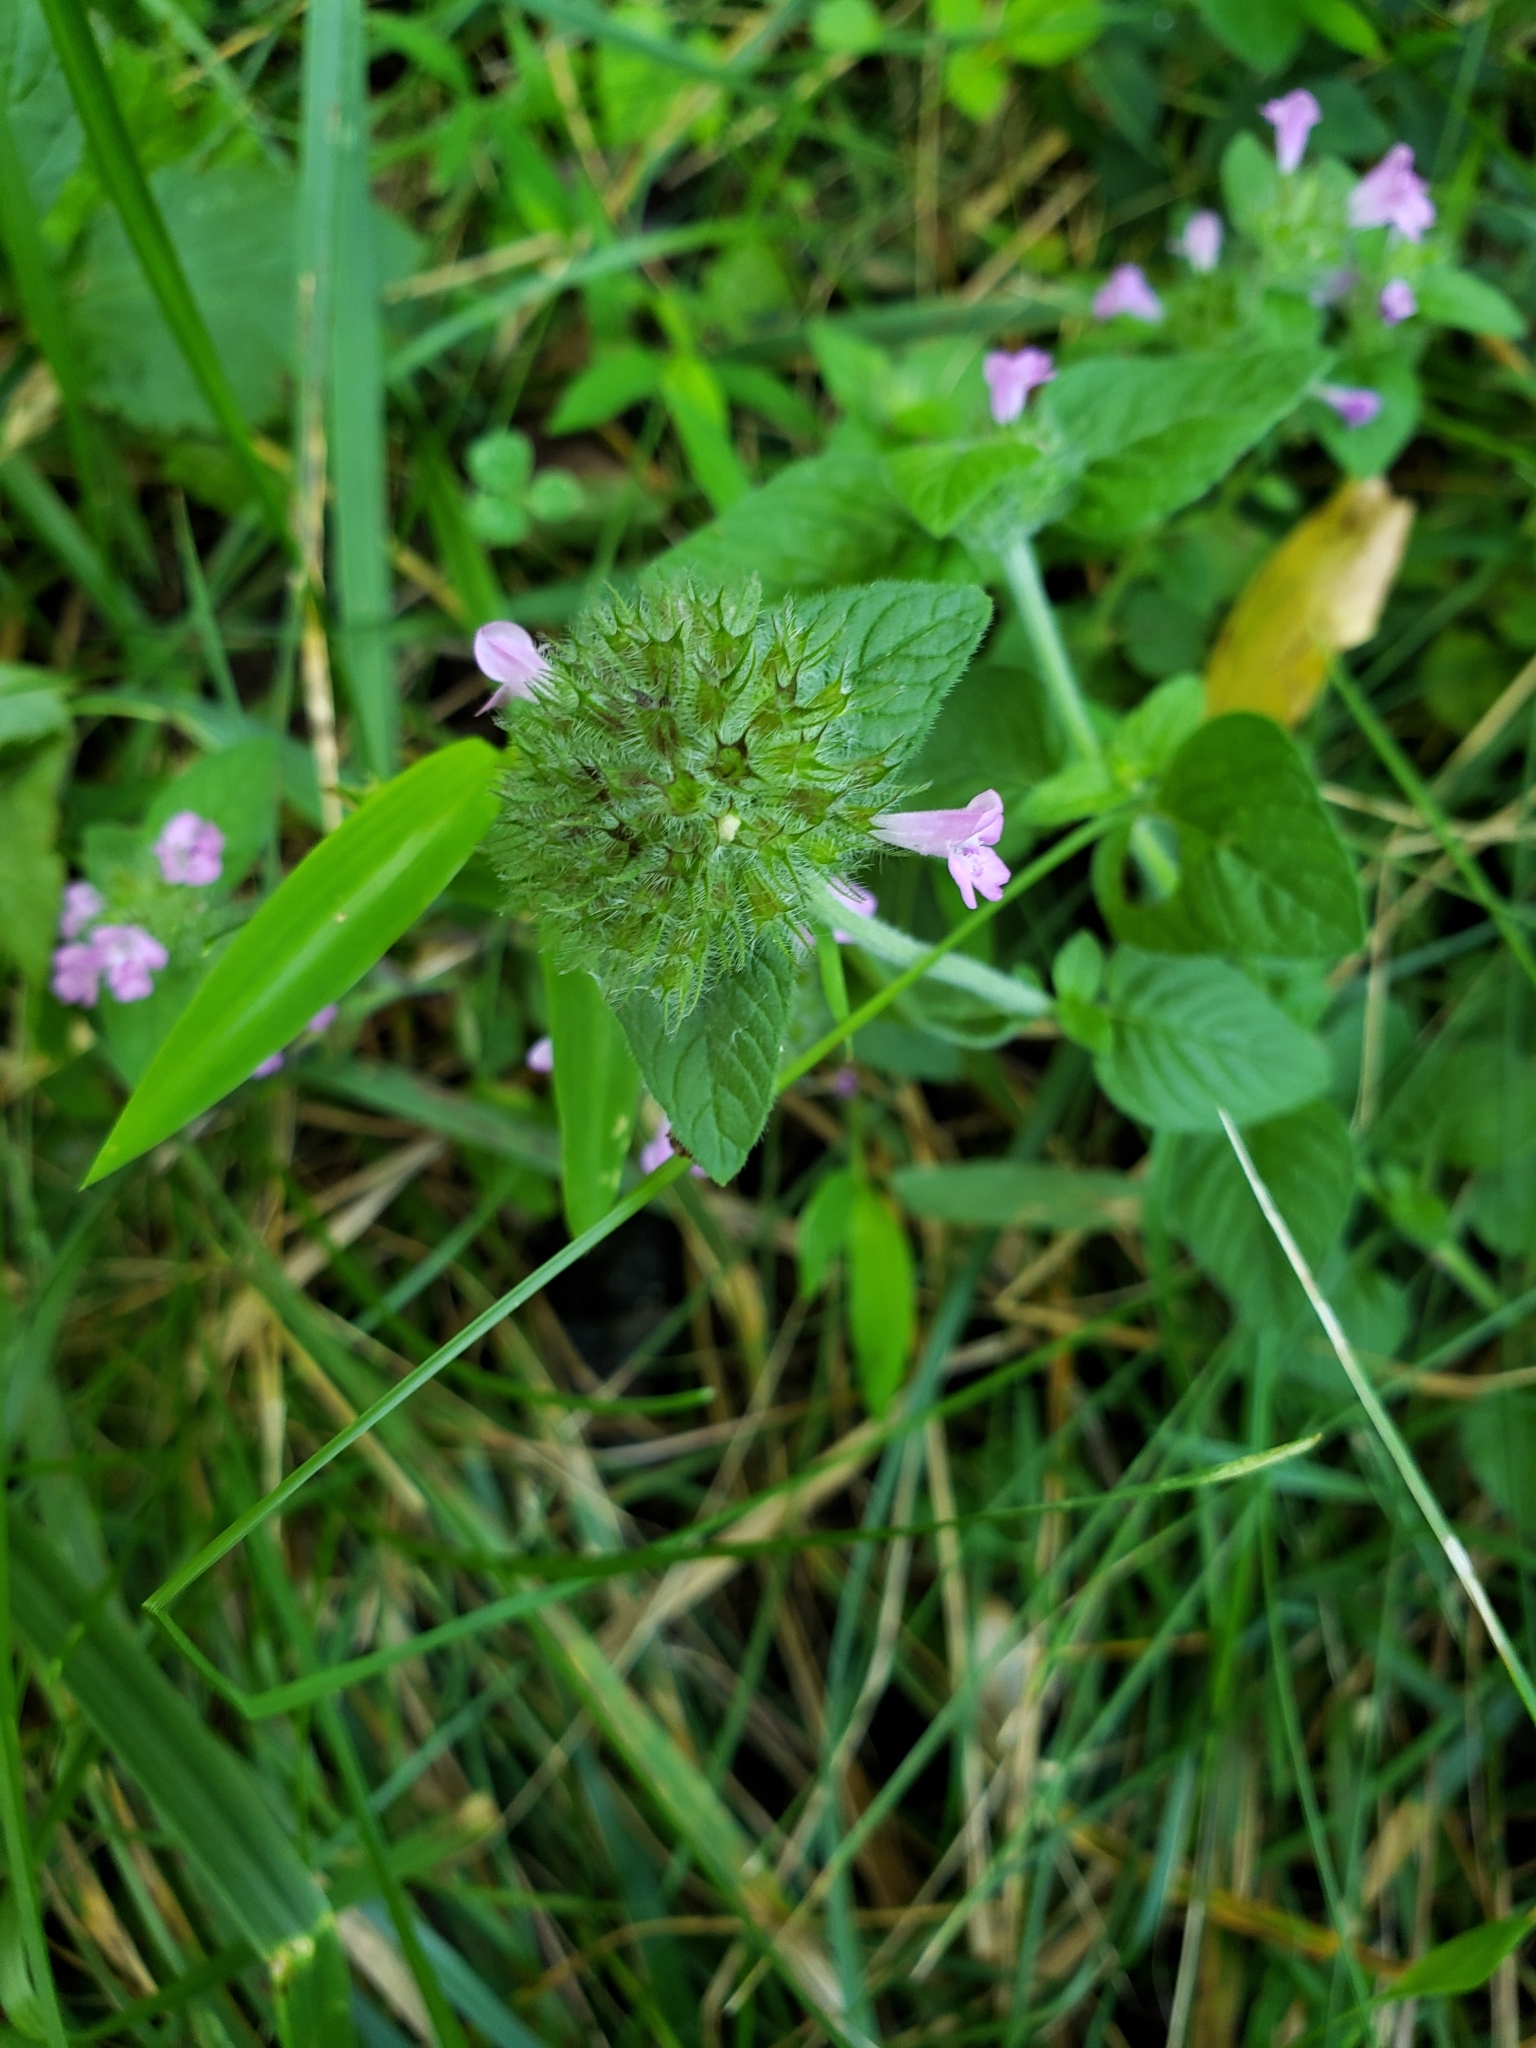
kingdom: Plantae
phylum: Tracheophyta
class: Magnoliopsida
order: Lamiales
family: Lamiaceae
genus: Clinopodium
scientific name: Clinopodium vulgare
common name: Wild basil
